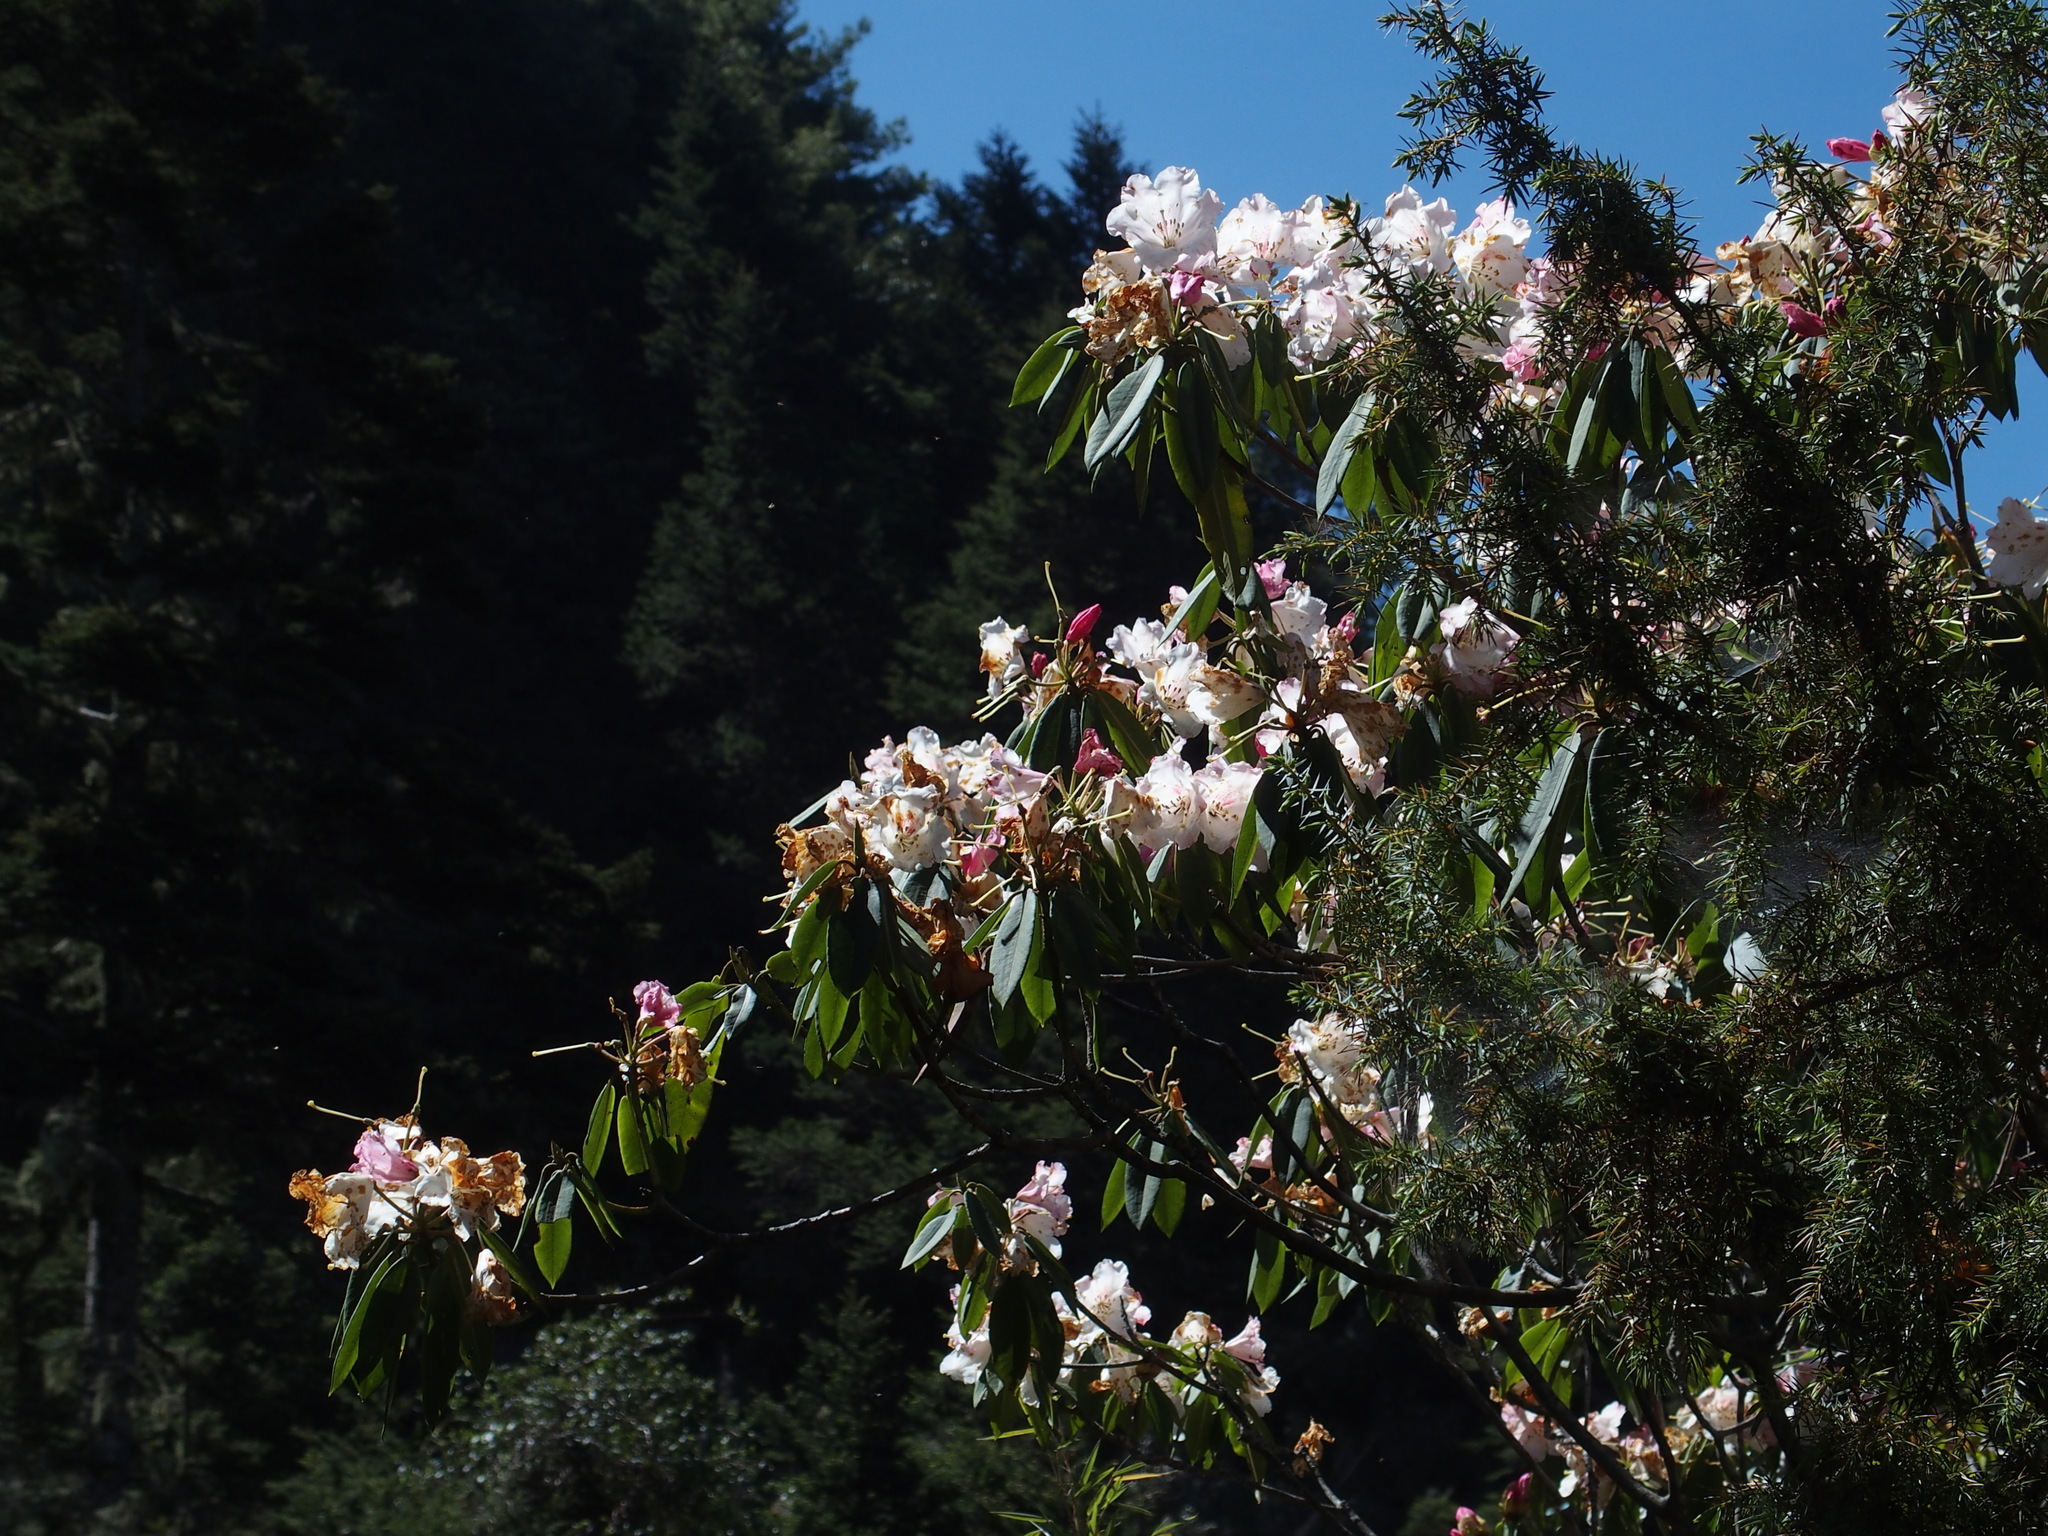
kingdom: Plantae
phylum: Tracheophyta
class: Magnoliopsida
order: Ericales
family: Ericaceae
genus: Rhododendron
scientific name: Rhododendron pseudochrysanthum
